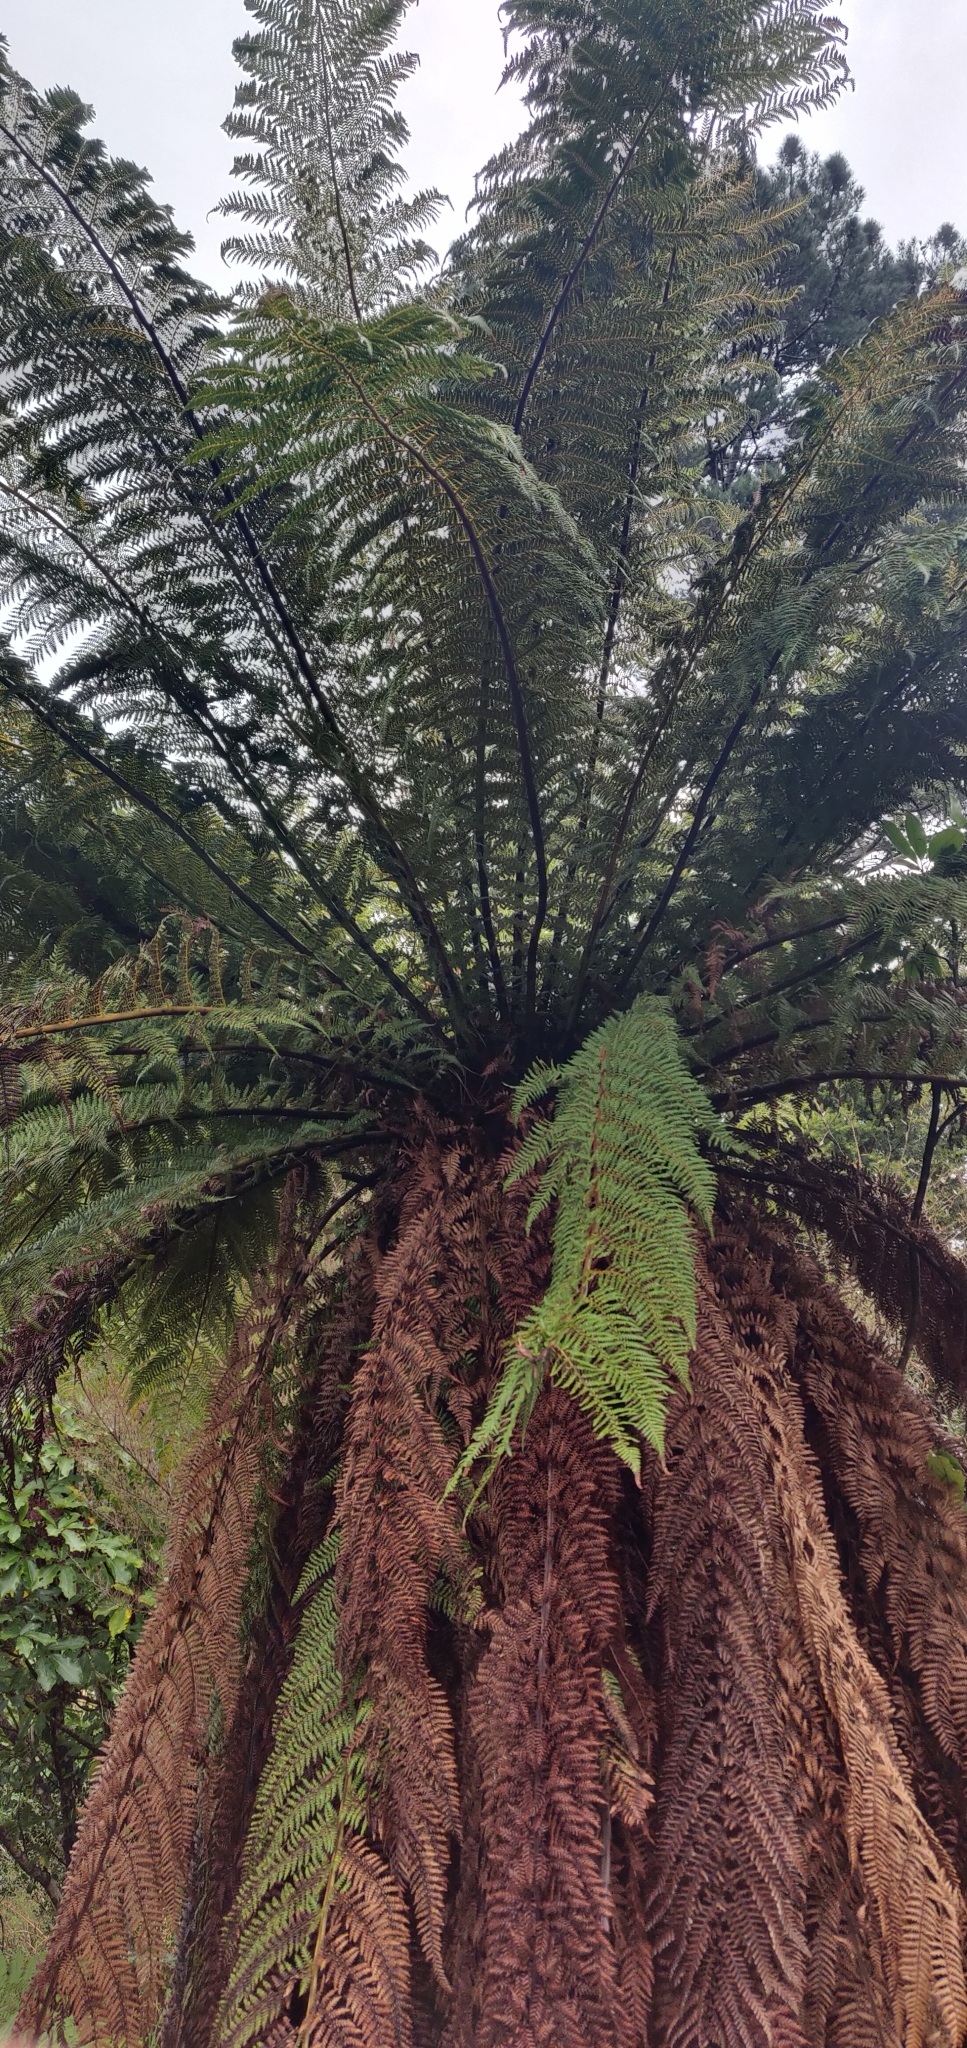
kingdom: Plantae
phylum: Tracheophyta
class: Polypodiopsida
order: Cyatheales
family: Dicksoniaceae
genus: Dicksonia
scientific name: Dicksonia fibrosa
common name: Golden tree fern
